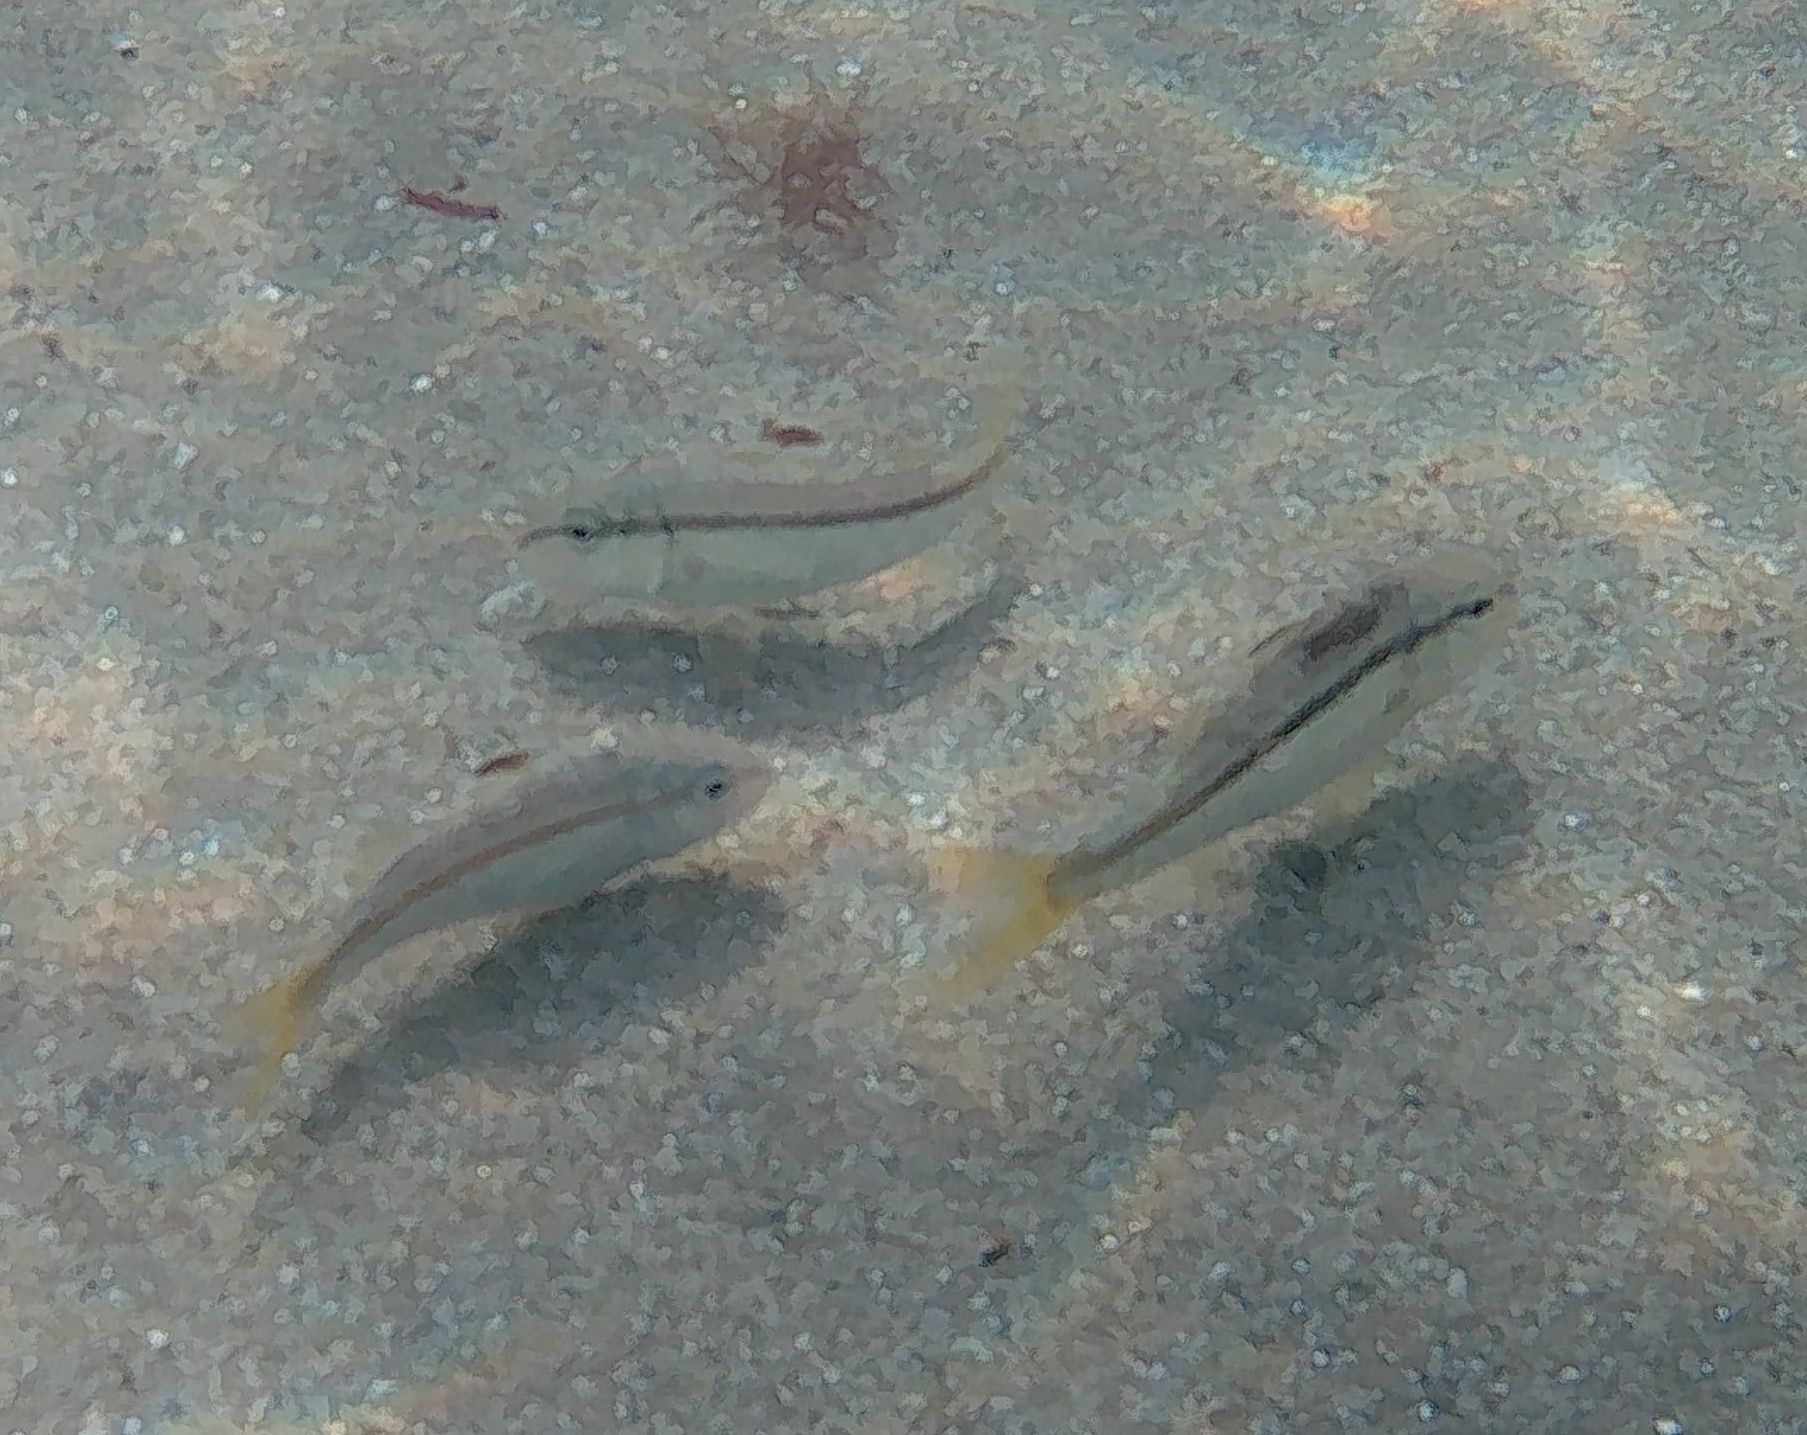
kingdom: Animalia
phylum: Chordata
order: Perciformes
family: Mullidae
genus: Mullus
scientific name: Mullus surmuletus
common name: Red mullet
